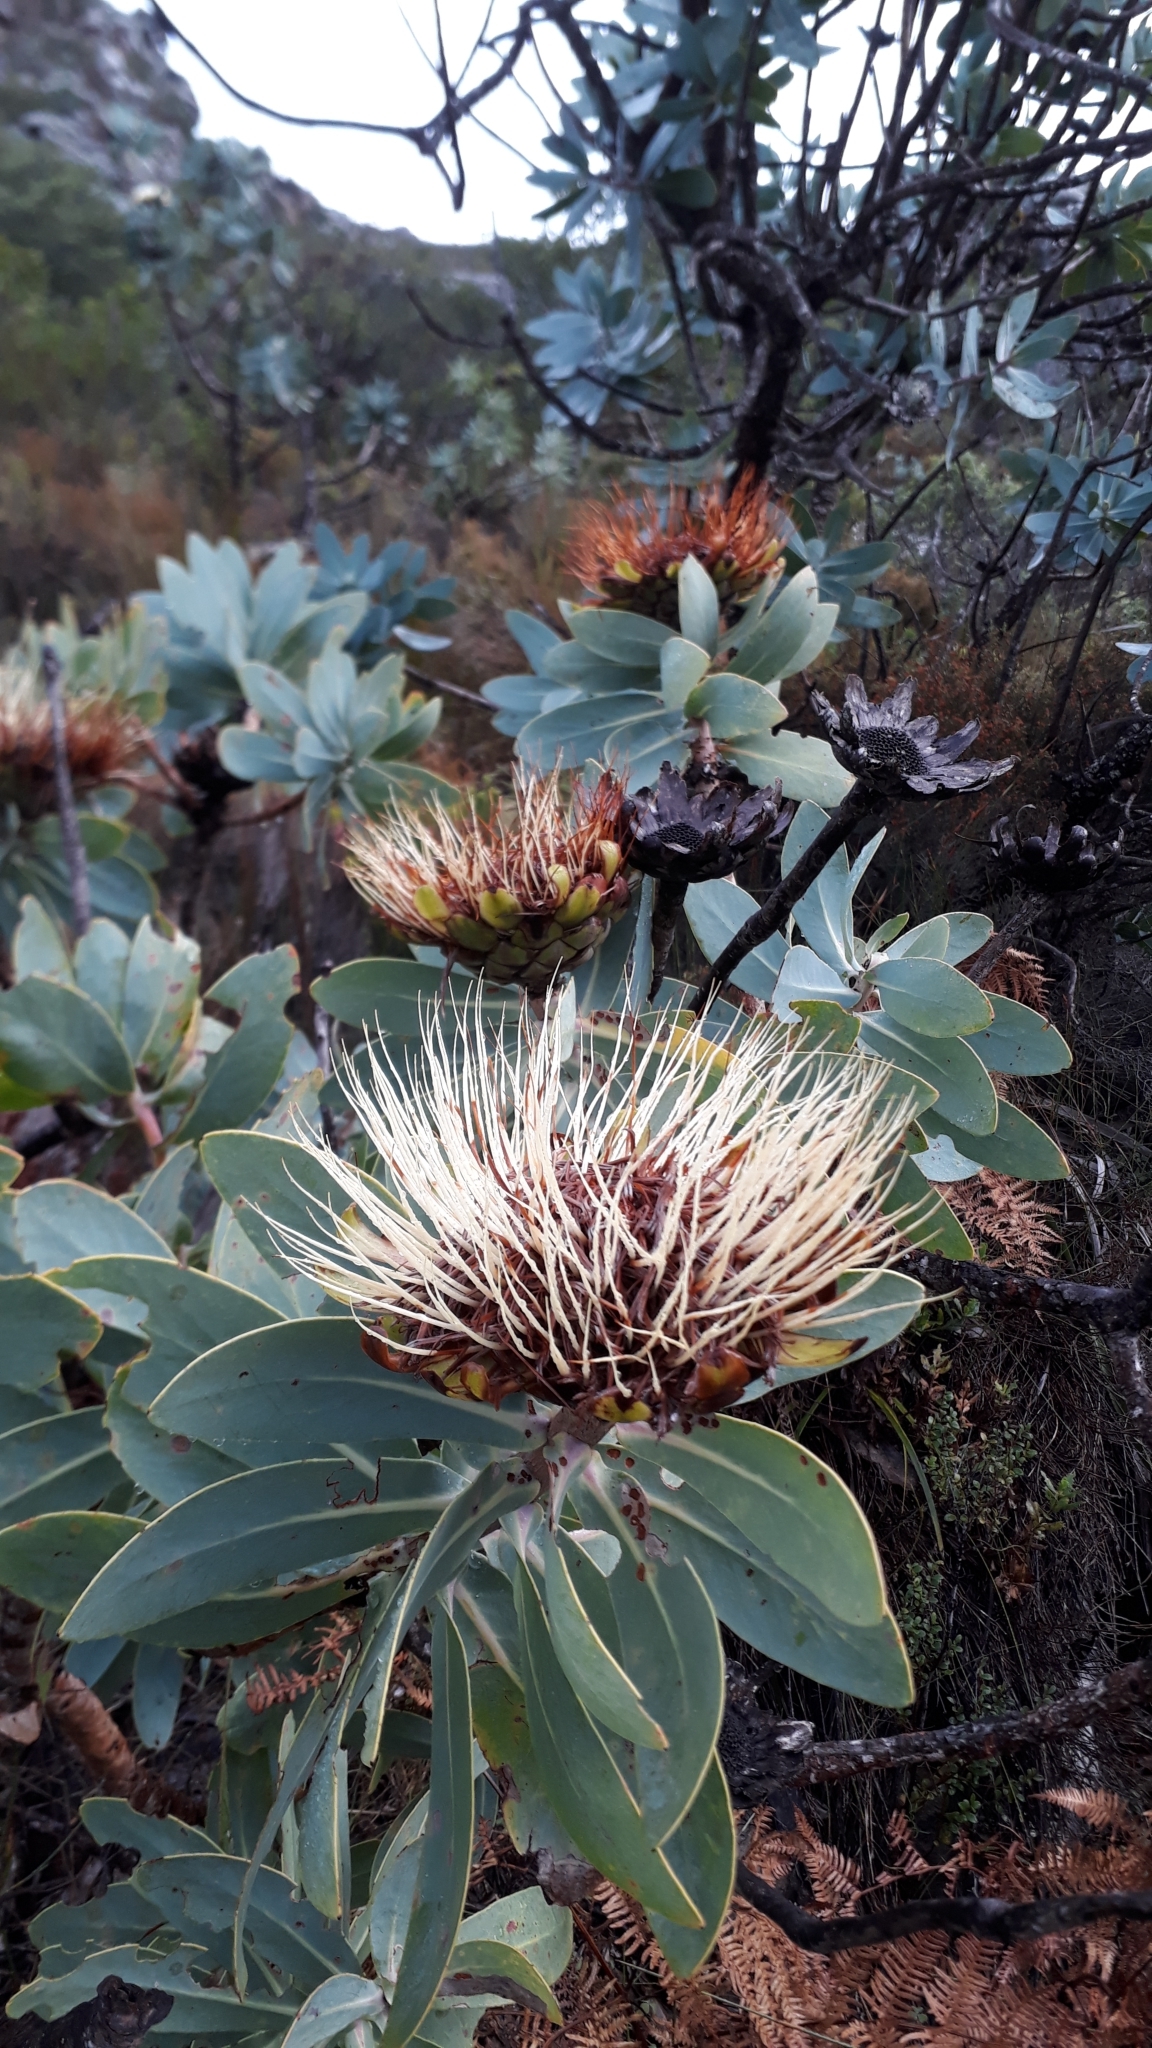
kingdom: Plantae
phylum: Tracheophyta
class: Magnoliopsida
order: Proteales
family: Proteaceae
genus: Protea
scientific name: Protea nitida
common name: Tree protea
